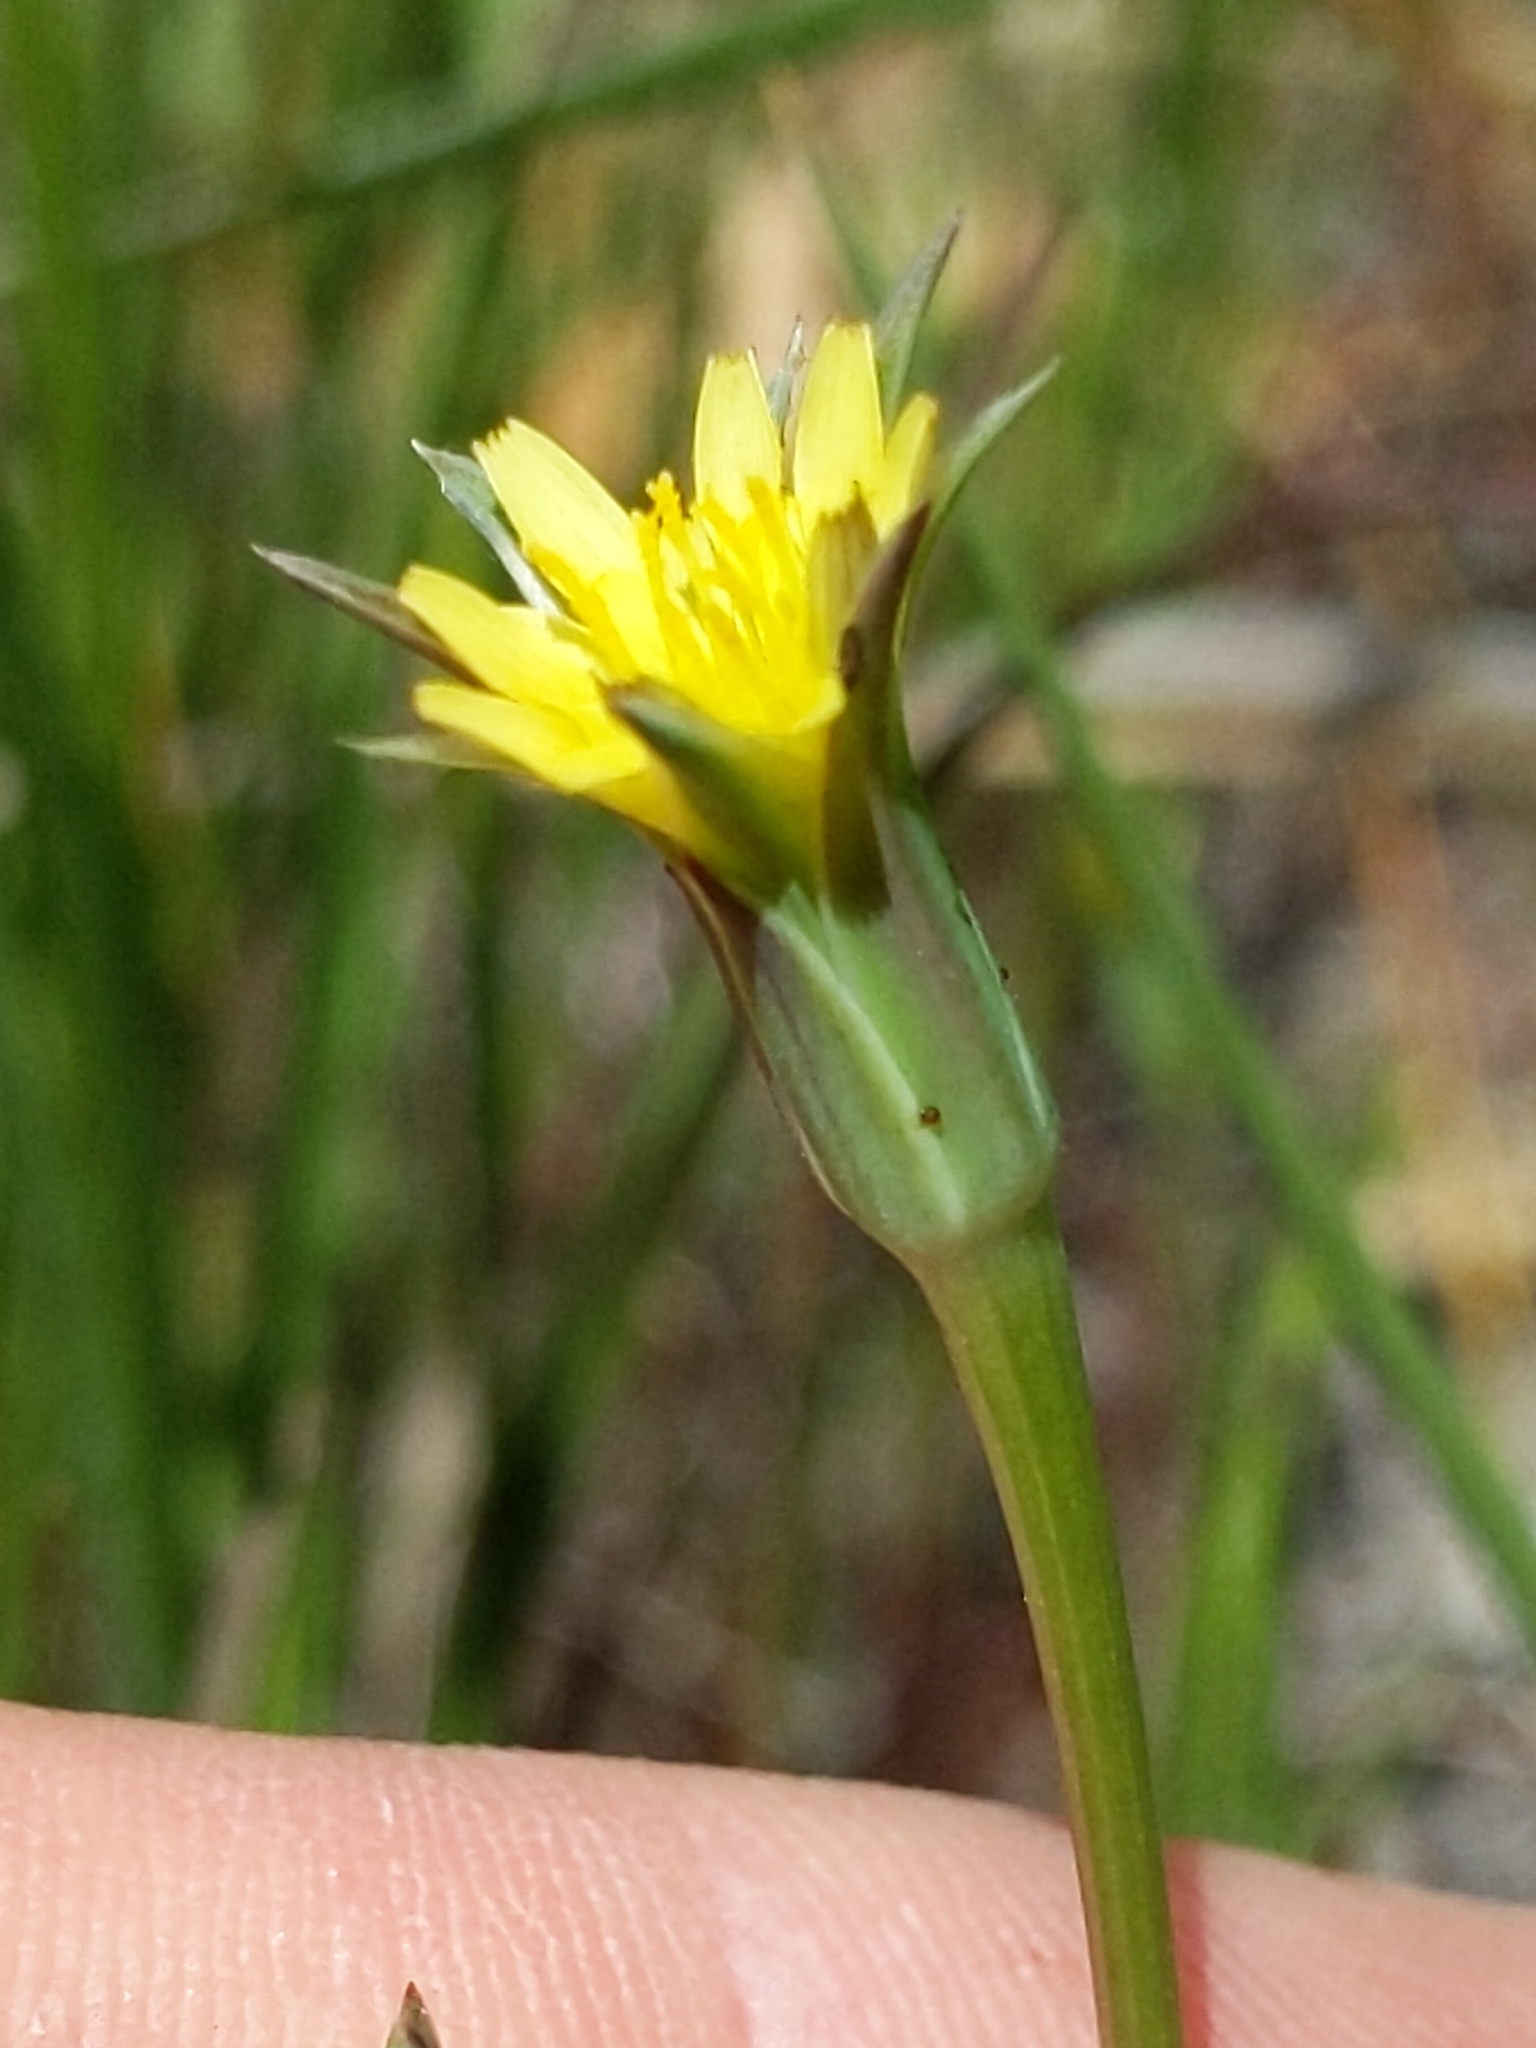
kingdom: Plantae
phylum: Tracheophyta
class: Magnoliopsida
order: Asterales
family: Asteraceae
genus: Microseris
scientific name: Microseris lindleyi
